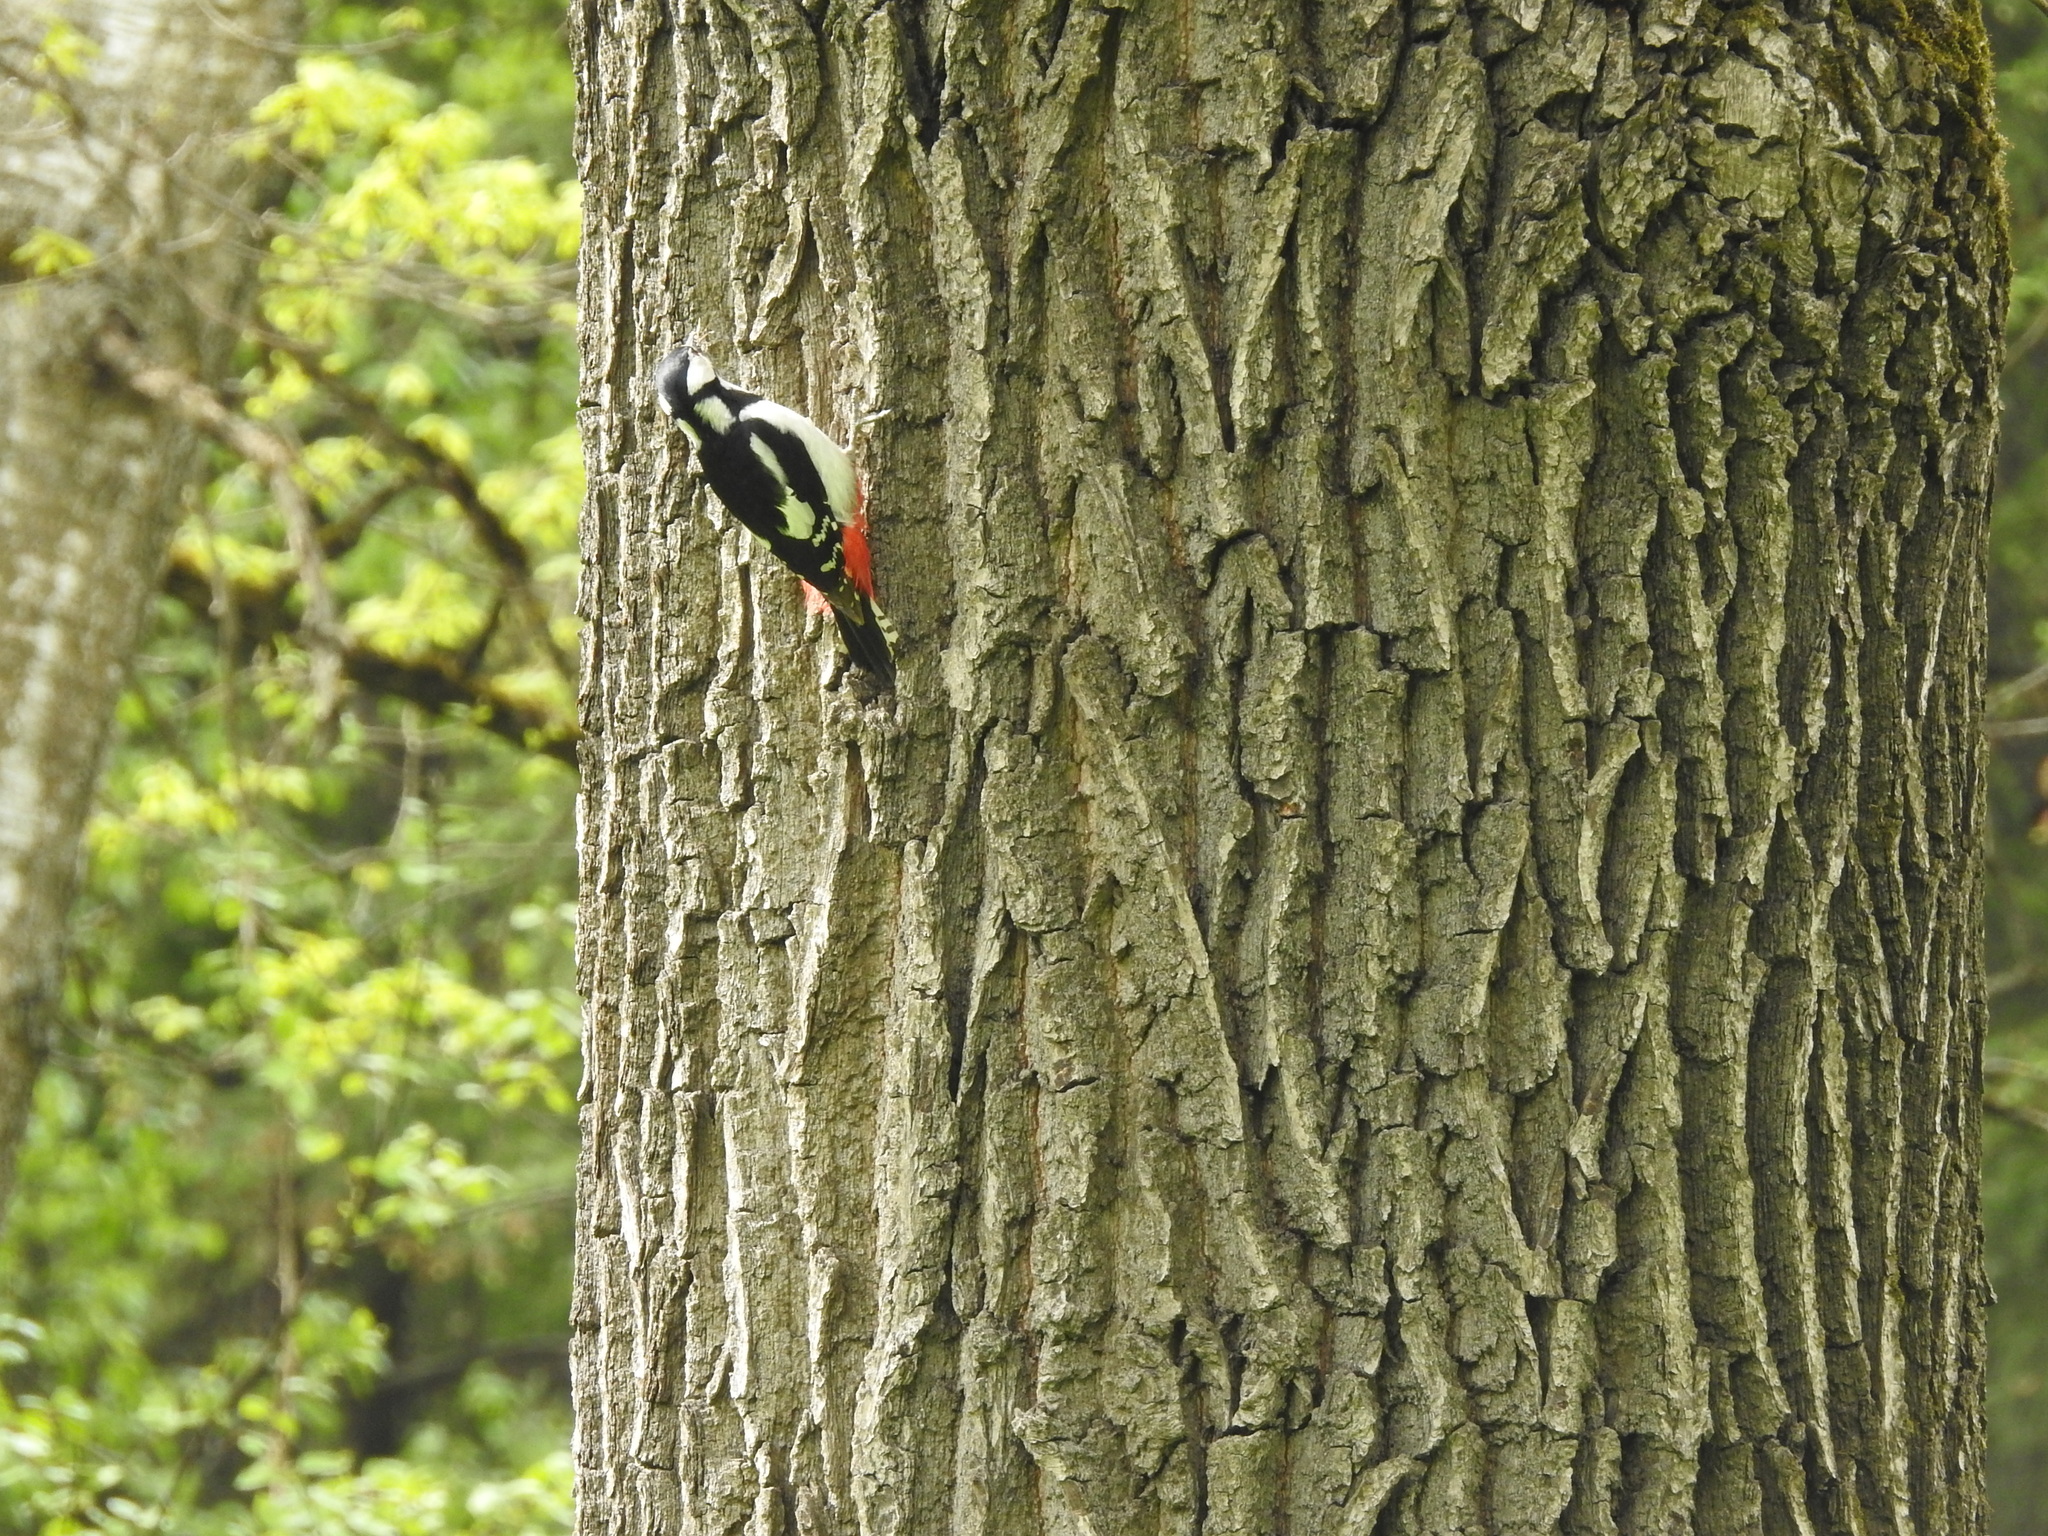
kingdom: Animalia
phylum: Chordata
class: Aves
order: Piciformes
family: Picidae
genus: Dendrocopos
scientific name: Dendrocopos major
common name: Great spotted woodpecker
